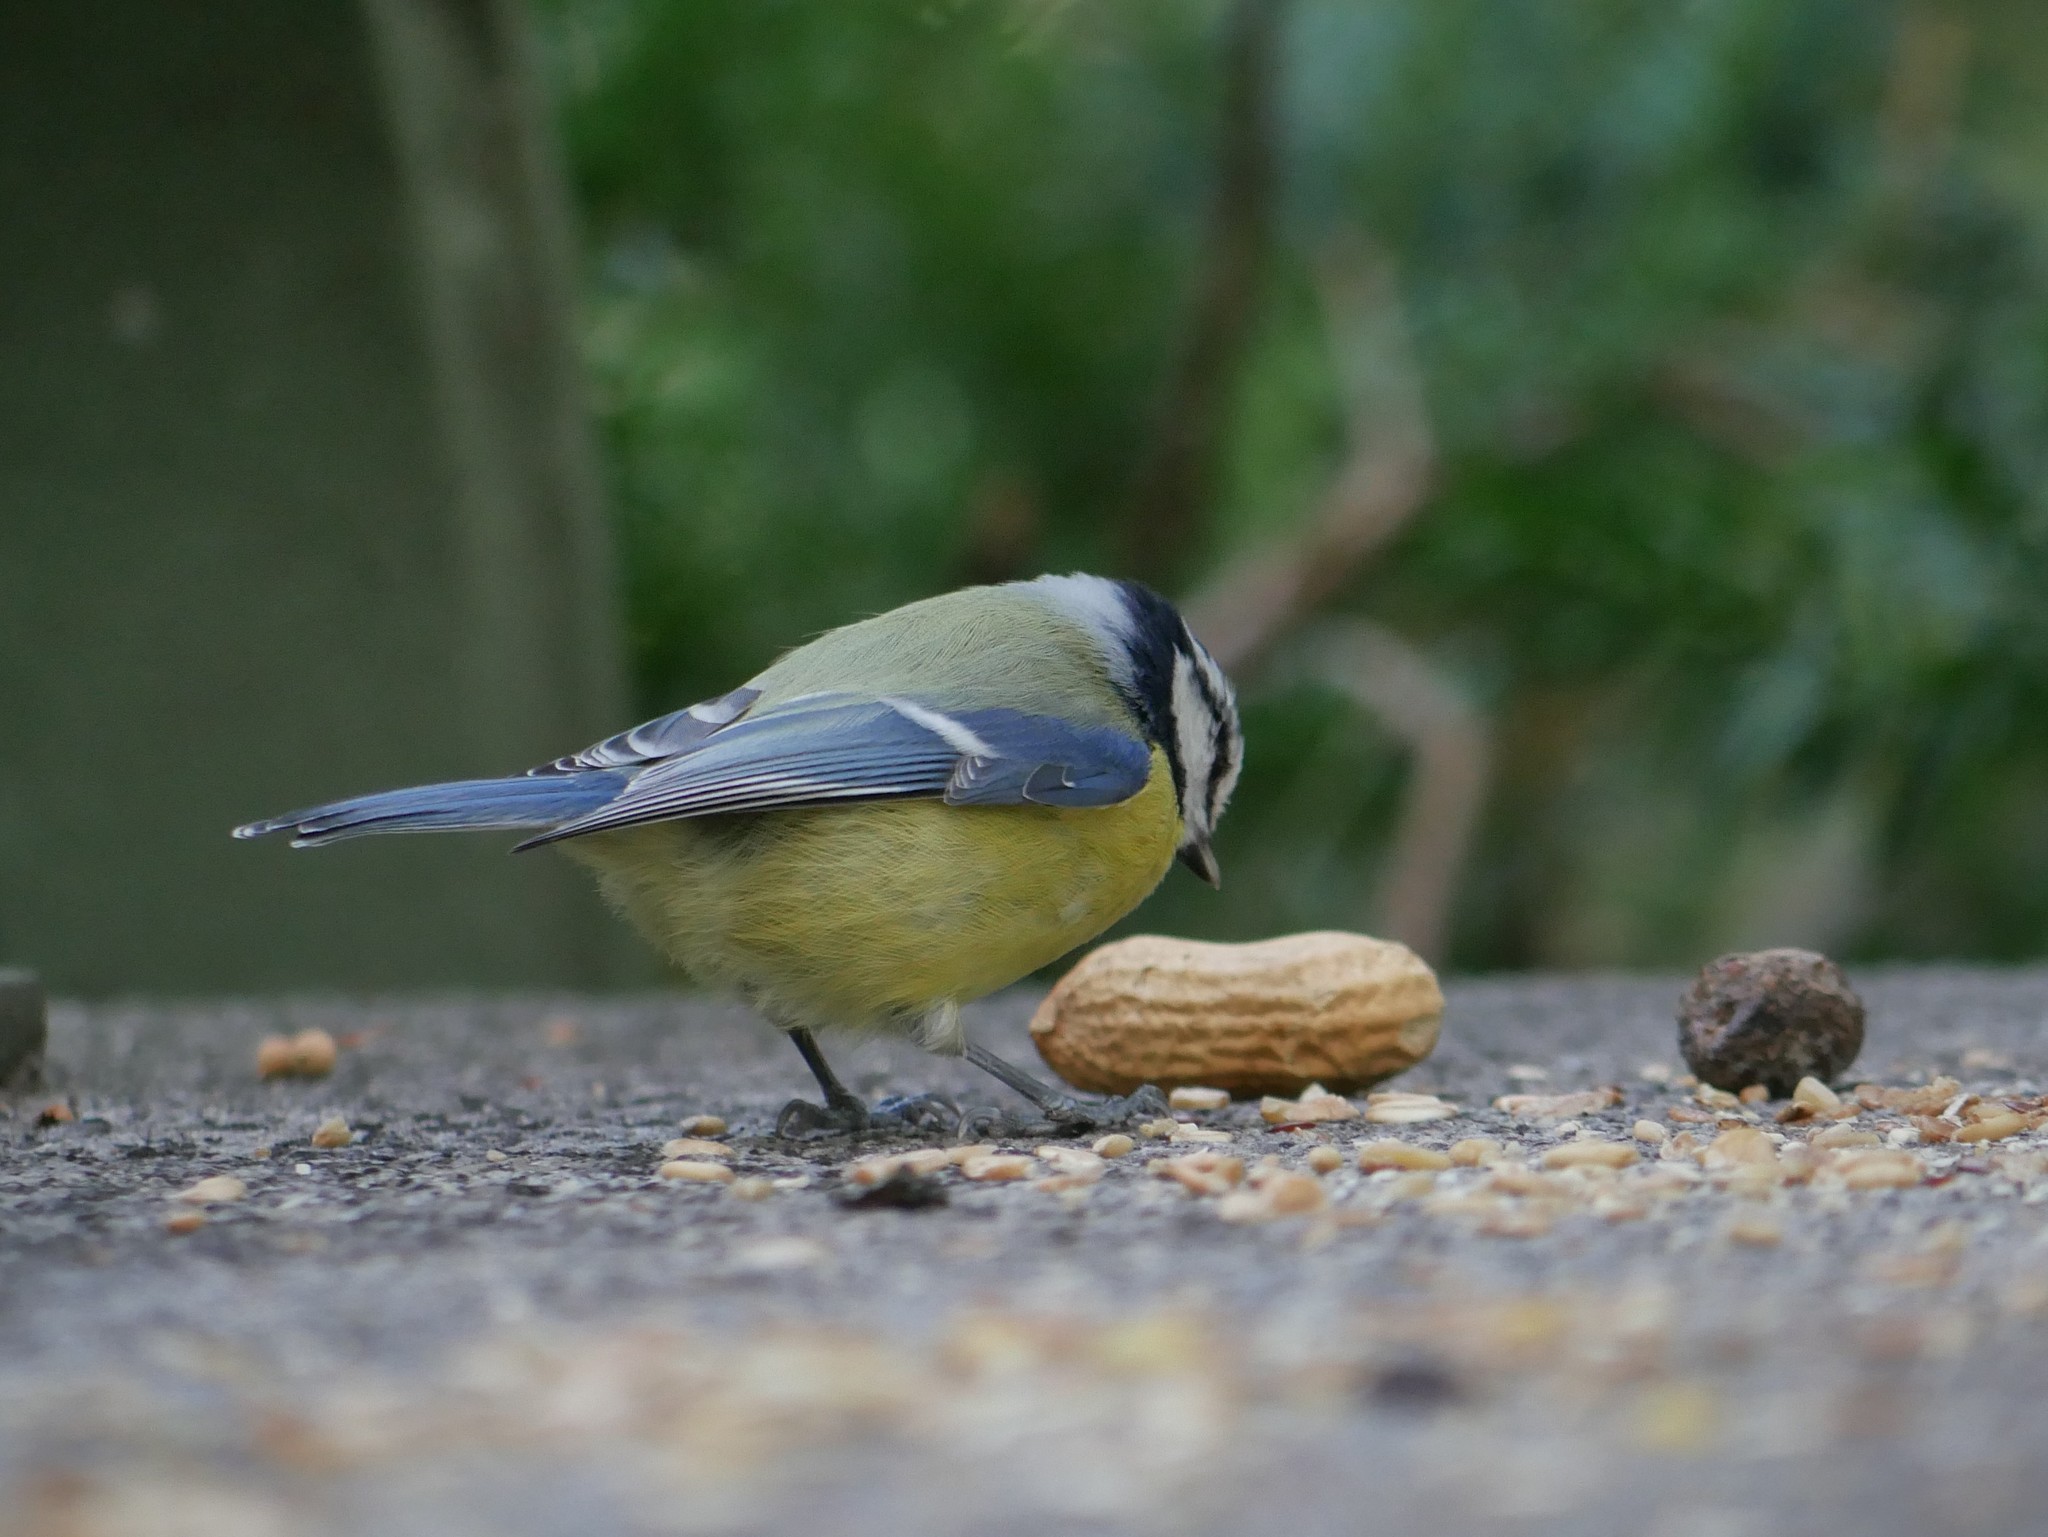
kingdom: Animalia
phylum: Chordata
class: Aves
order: Passeriformes
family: Paridae
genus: Cyanistes
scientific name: Cyanistes caeruleus
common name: Eurasian blue tit
